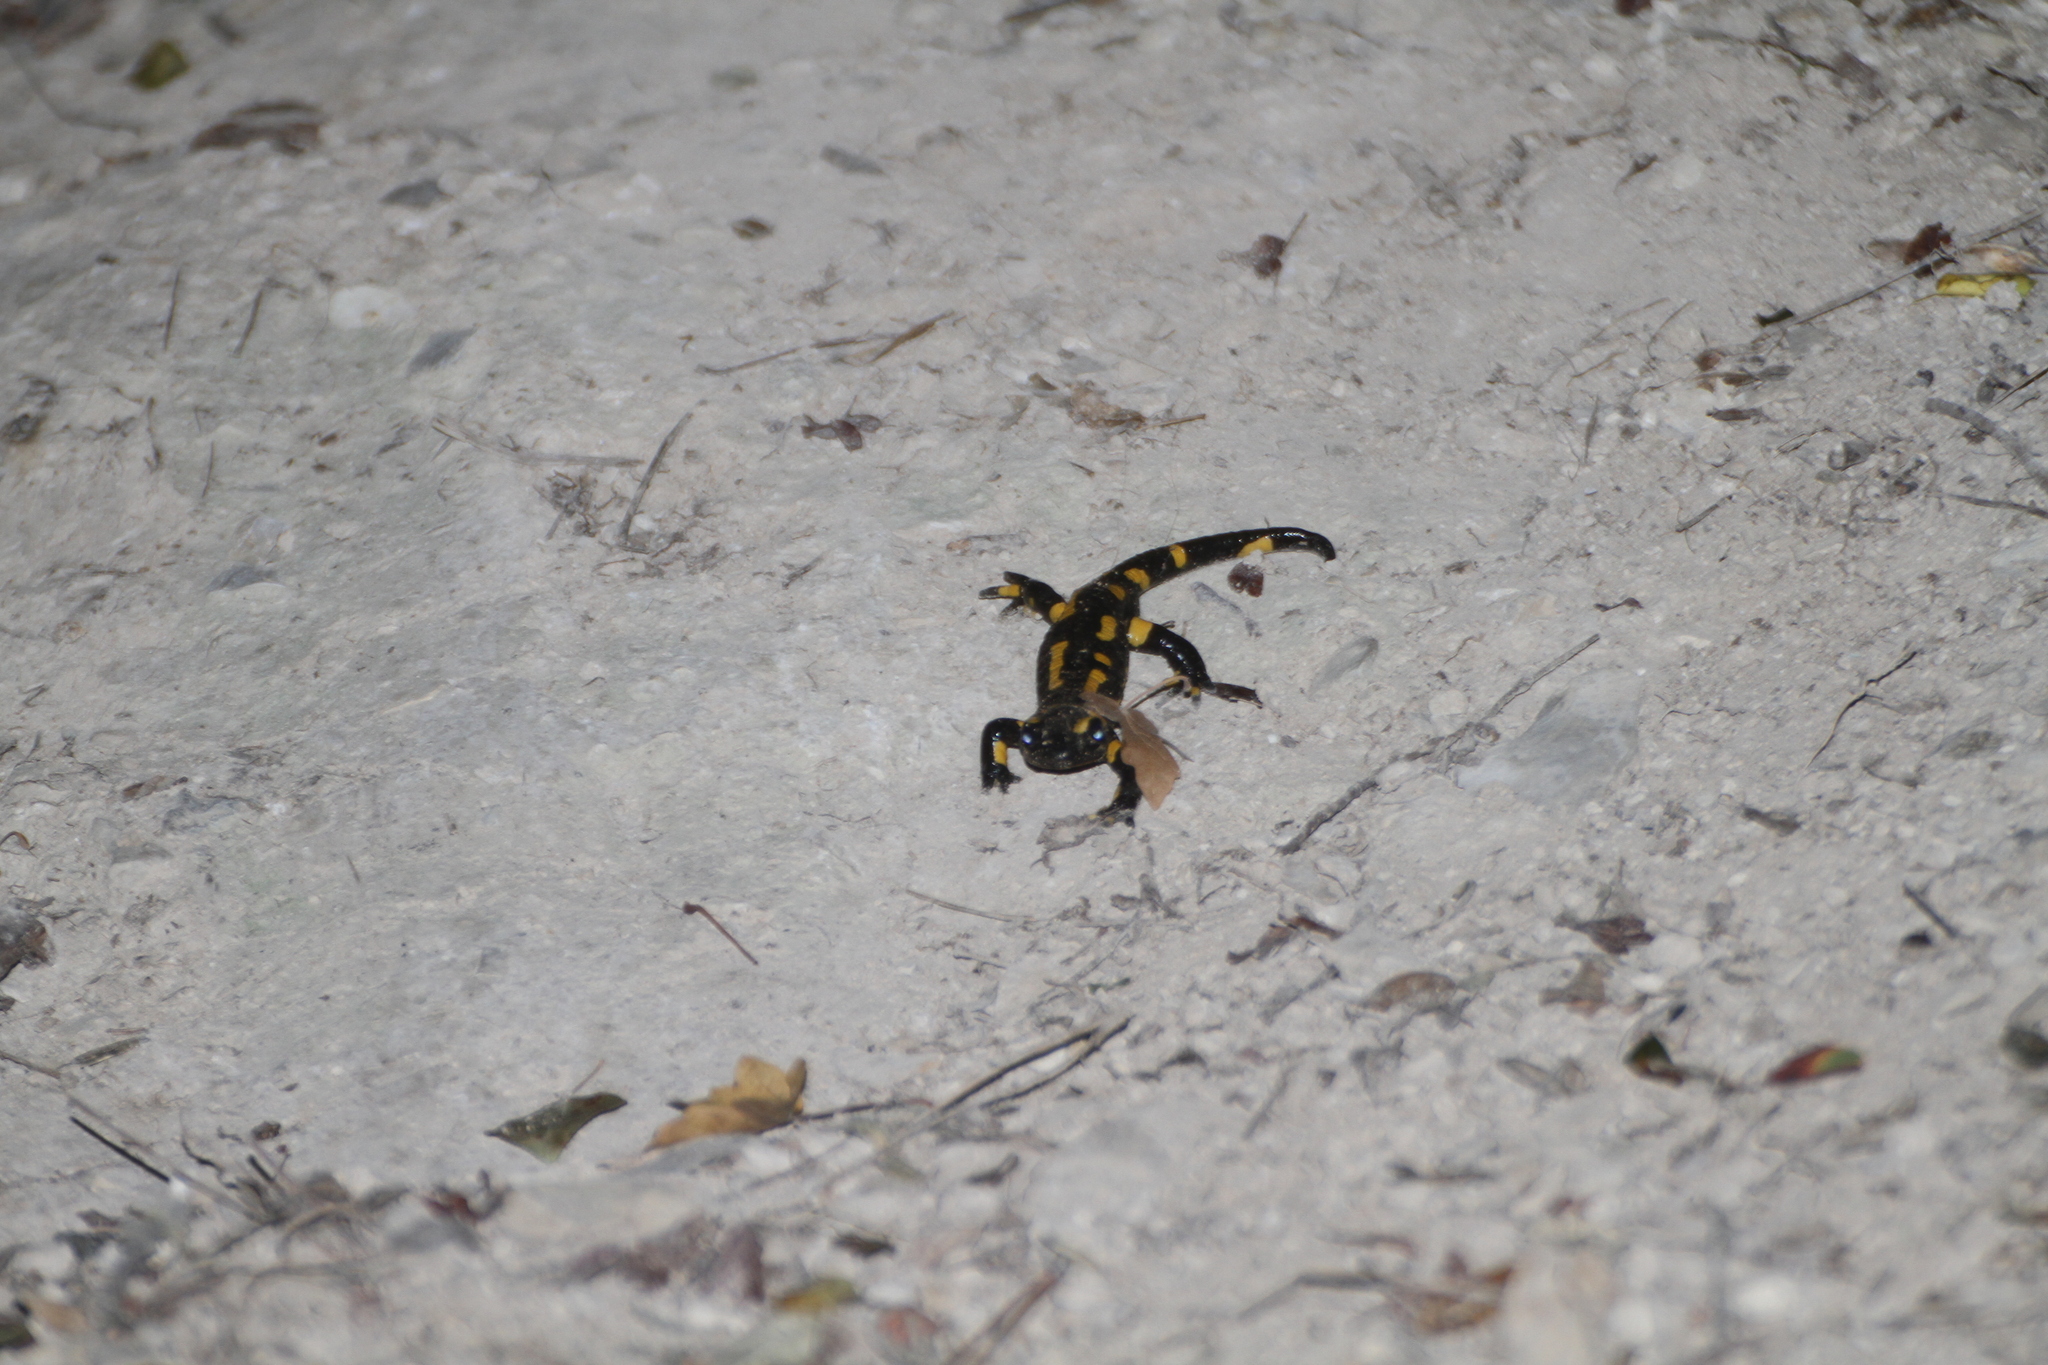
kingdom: Animalia
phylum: Chordata
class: Amphibia
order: Caudata
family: Salamandridae
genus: Salamandra
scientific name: Salamandra salamandra
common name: Fire salamander
